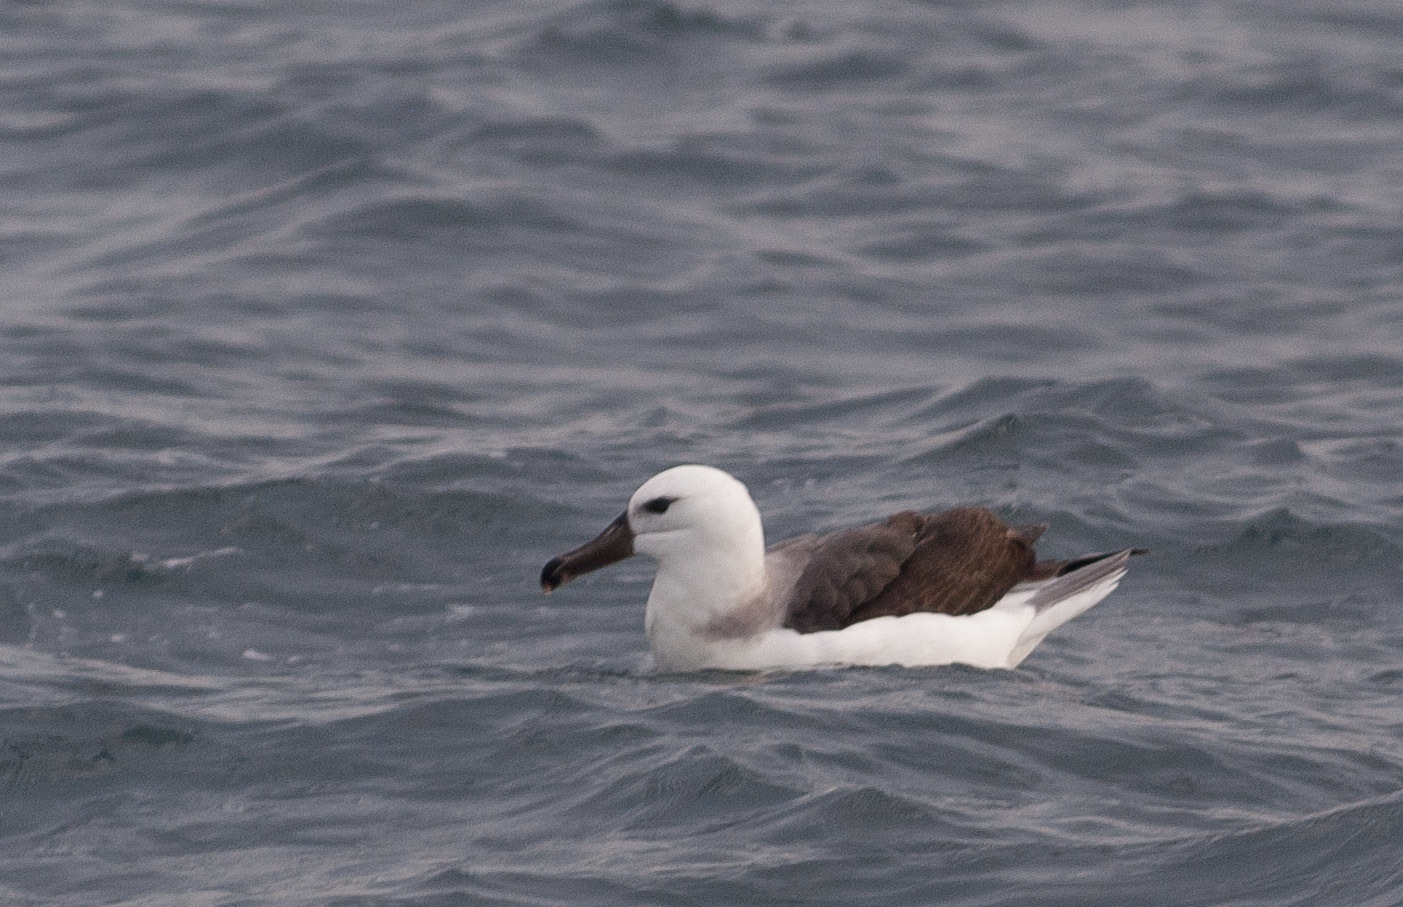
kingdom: Animalia
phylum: Chordata
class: Aves
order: Procellariiformes
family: Diomedeidae
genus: Thalassarche
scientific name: Thalassarche melanophris
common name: Black-browed albatross
